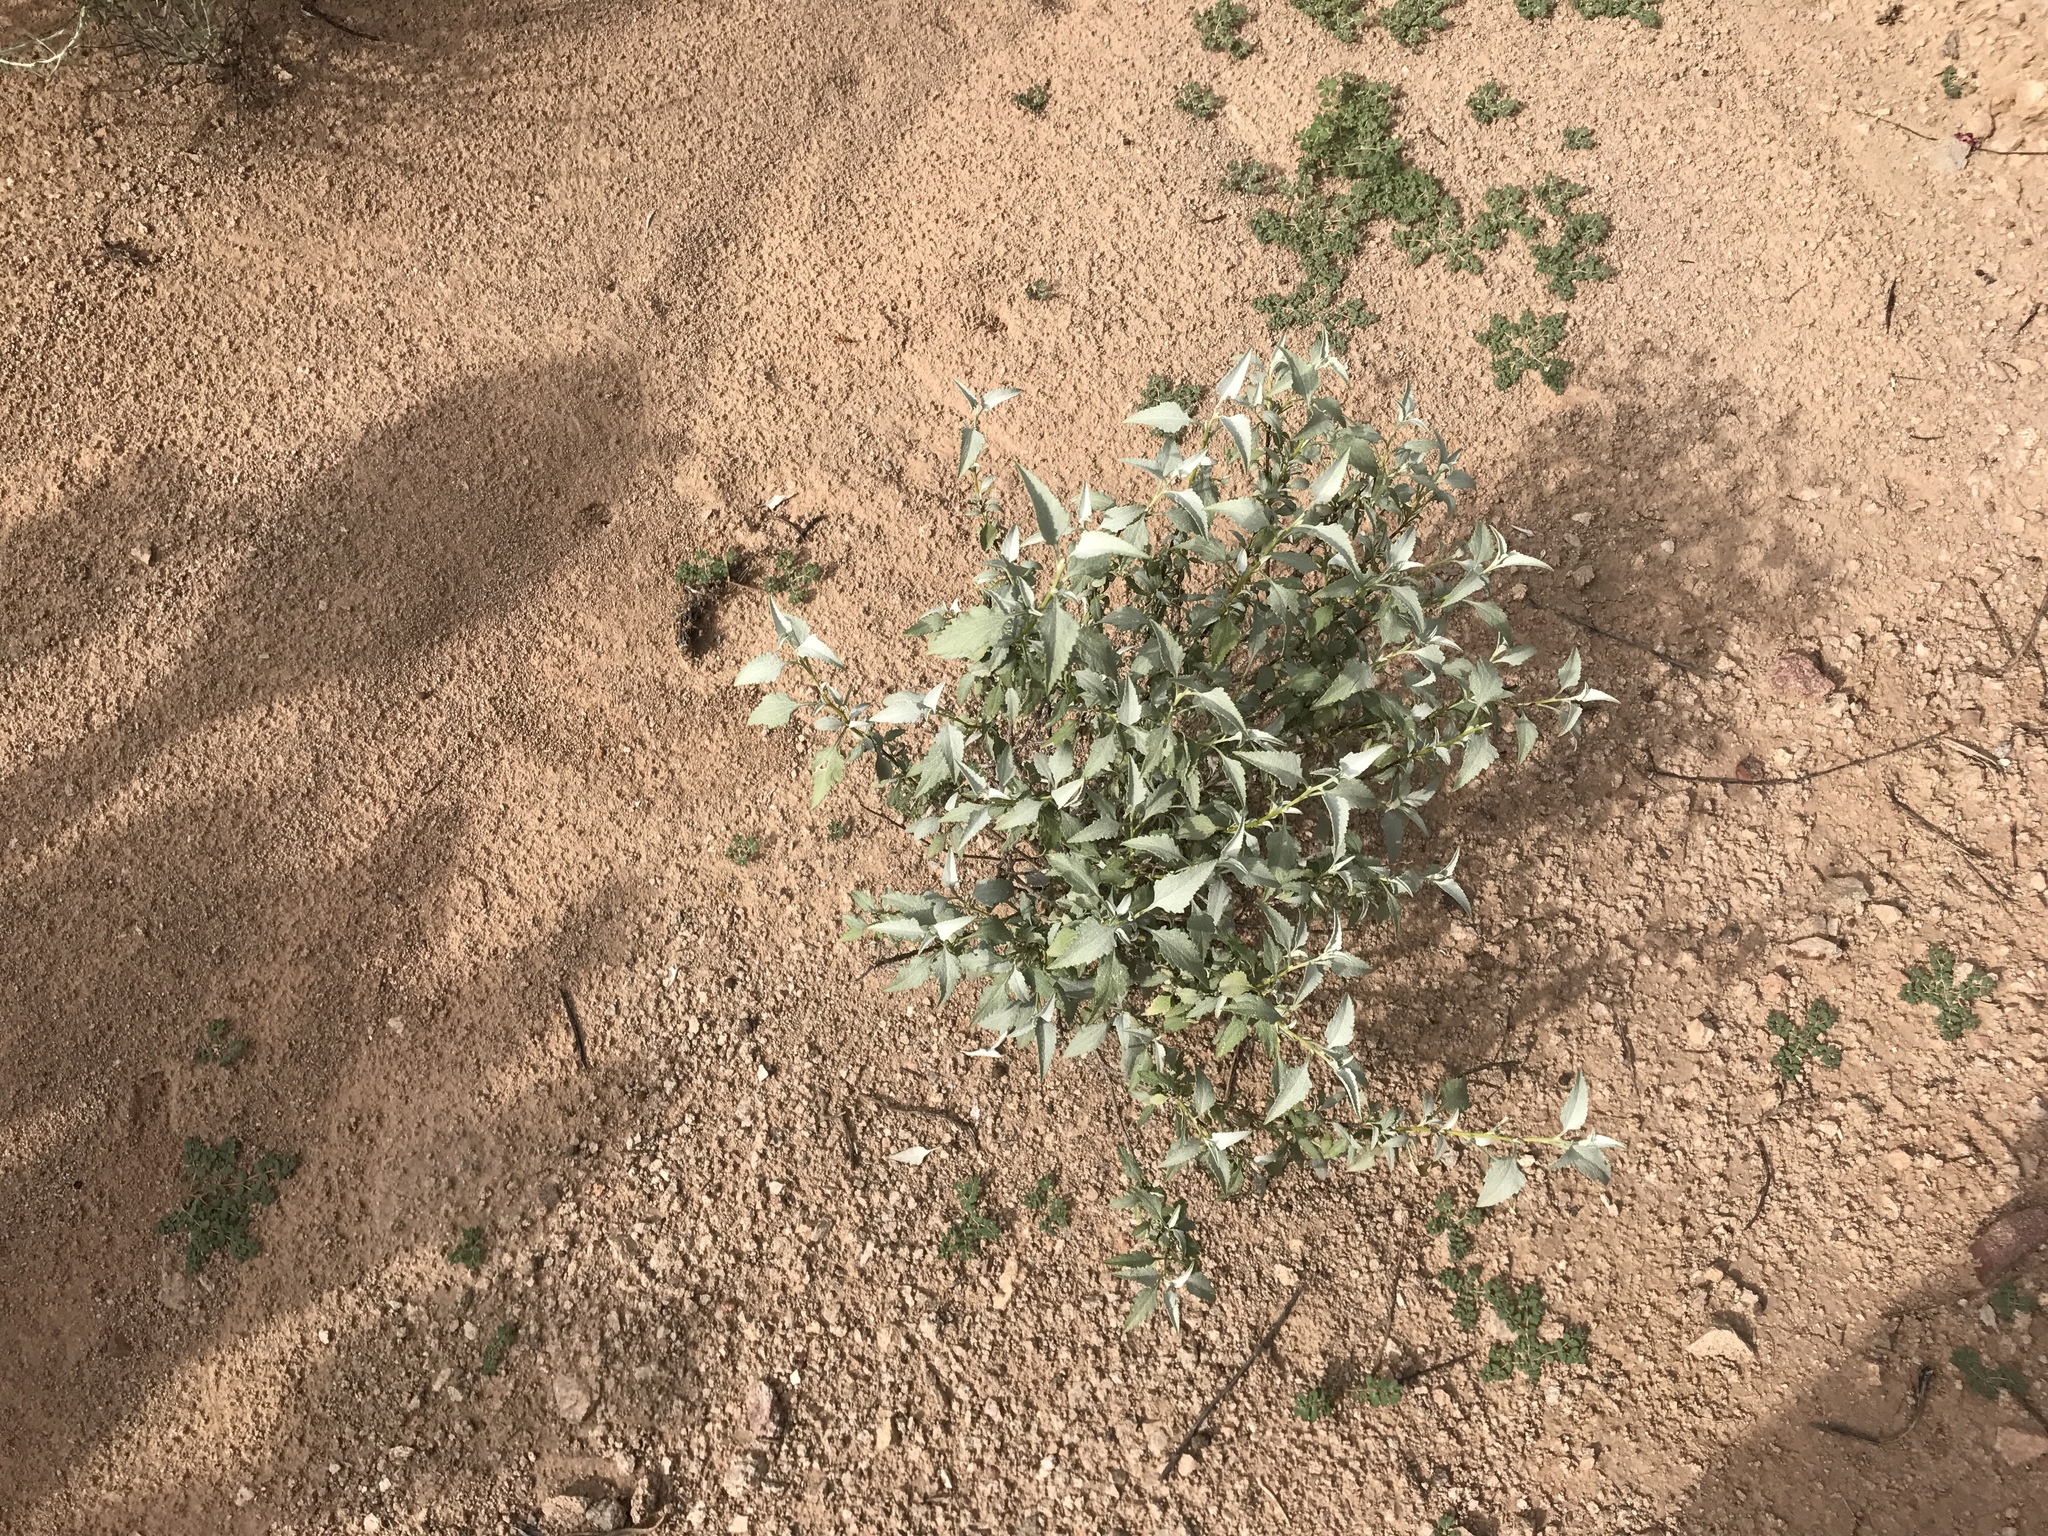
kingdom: Plantae
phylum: Tracheophyta
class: Magnoliopsida
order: Asterales
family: Asteraceae
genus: Ambrosia
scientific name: Ambrosia deltoidea
